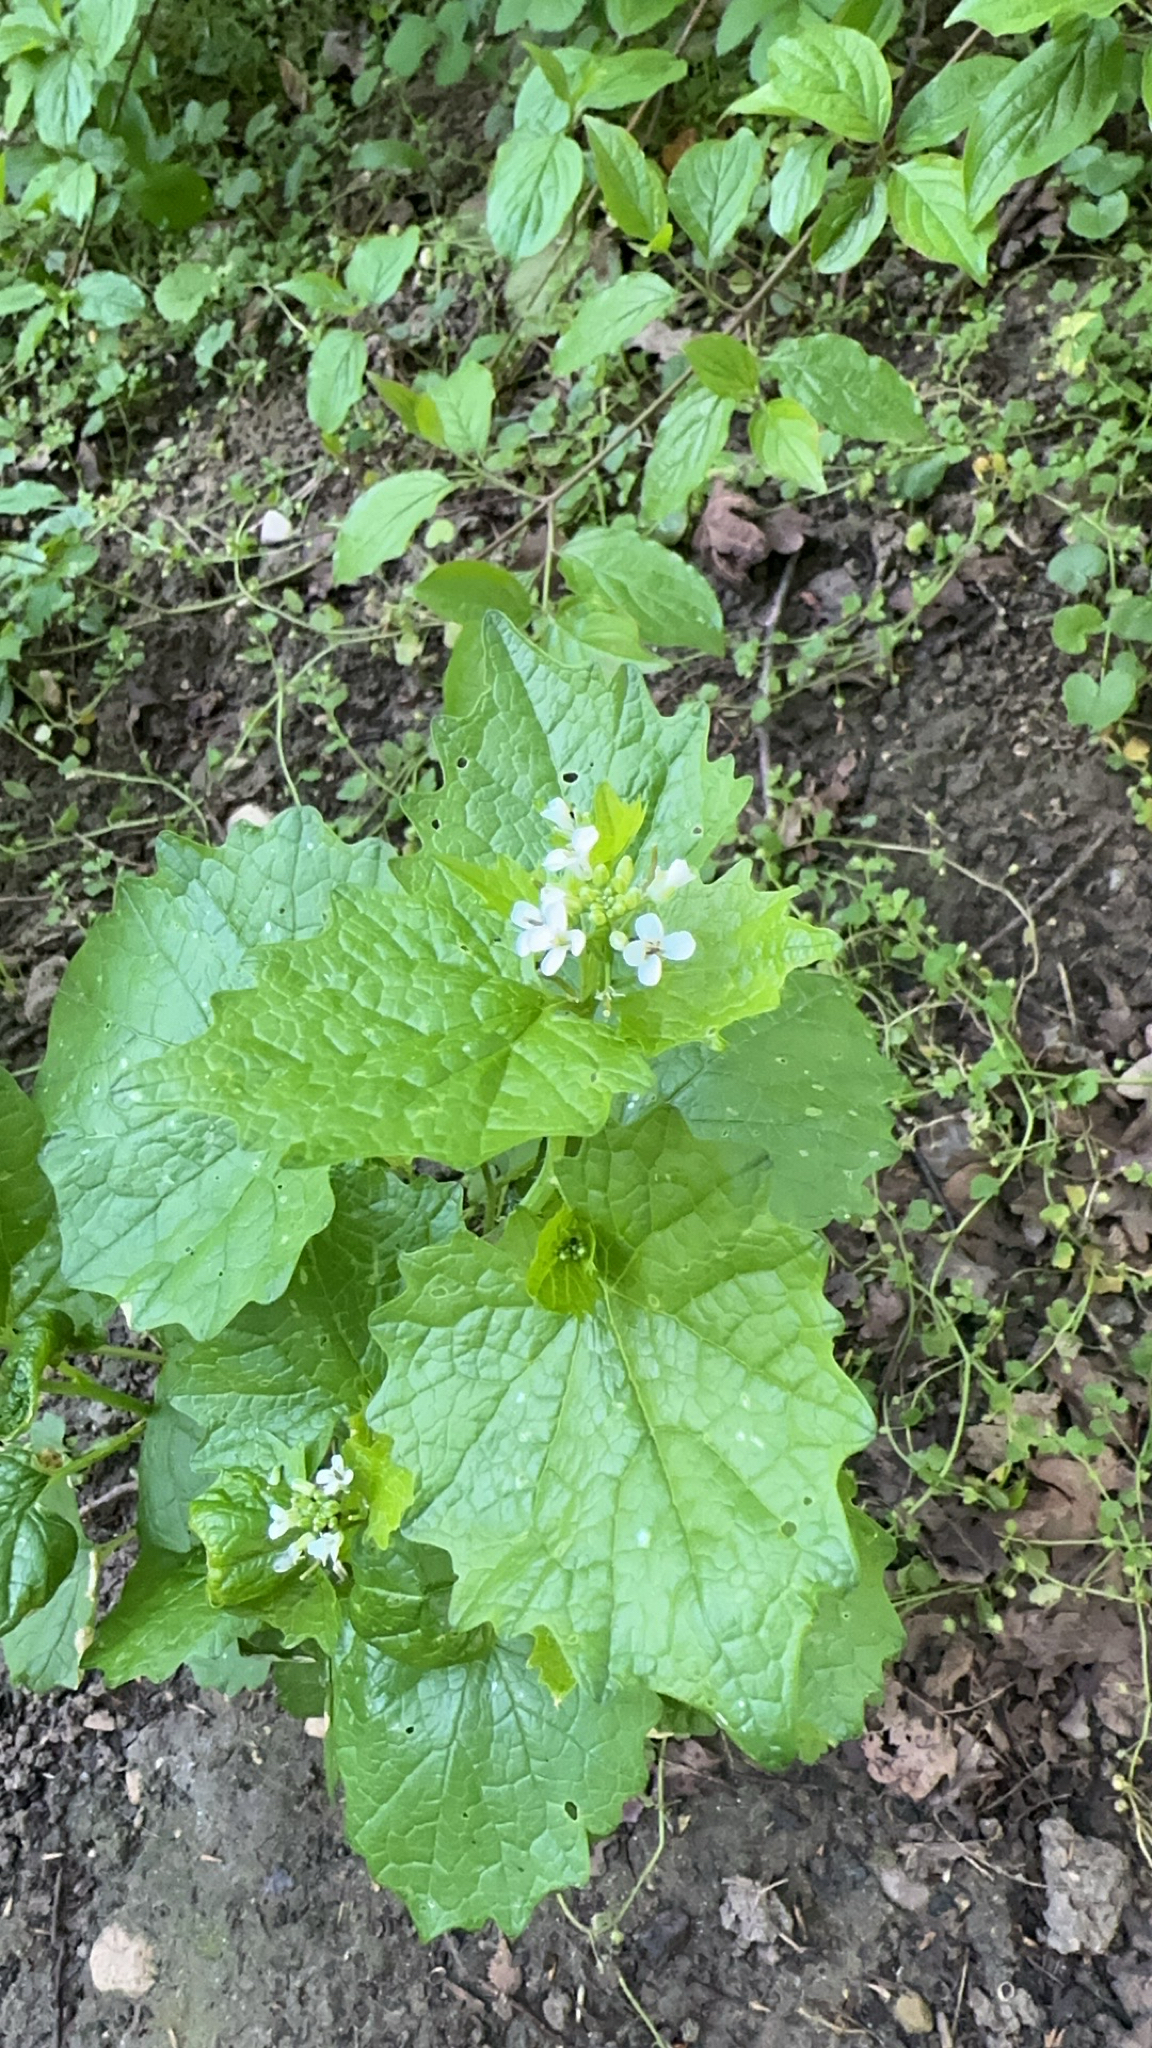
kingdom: Plantae
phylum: Tracheophyta
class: Magnoliopsida
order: Brassicales
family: Brassicaceae
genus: Alliaria
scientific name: Alliaria petiolata
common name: Garlic mustard
